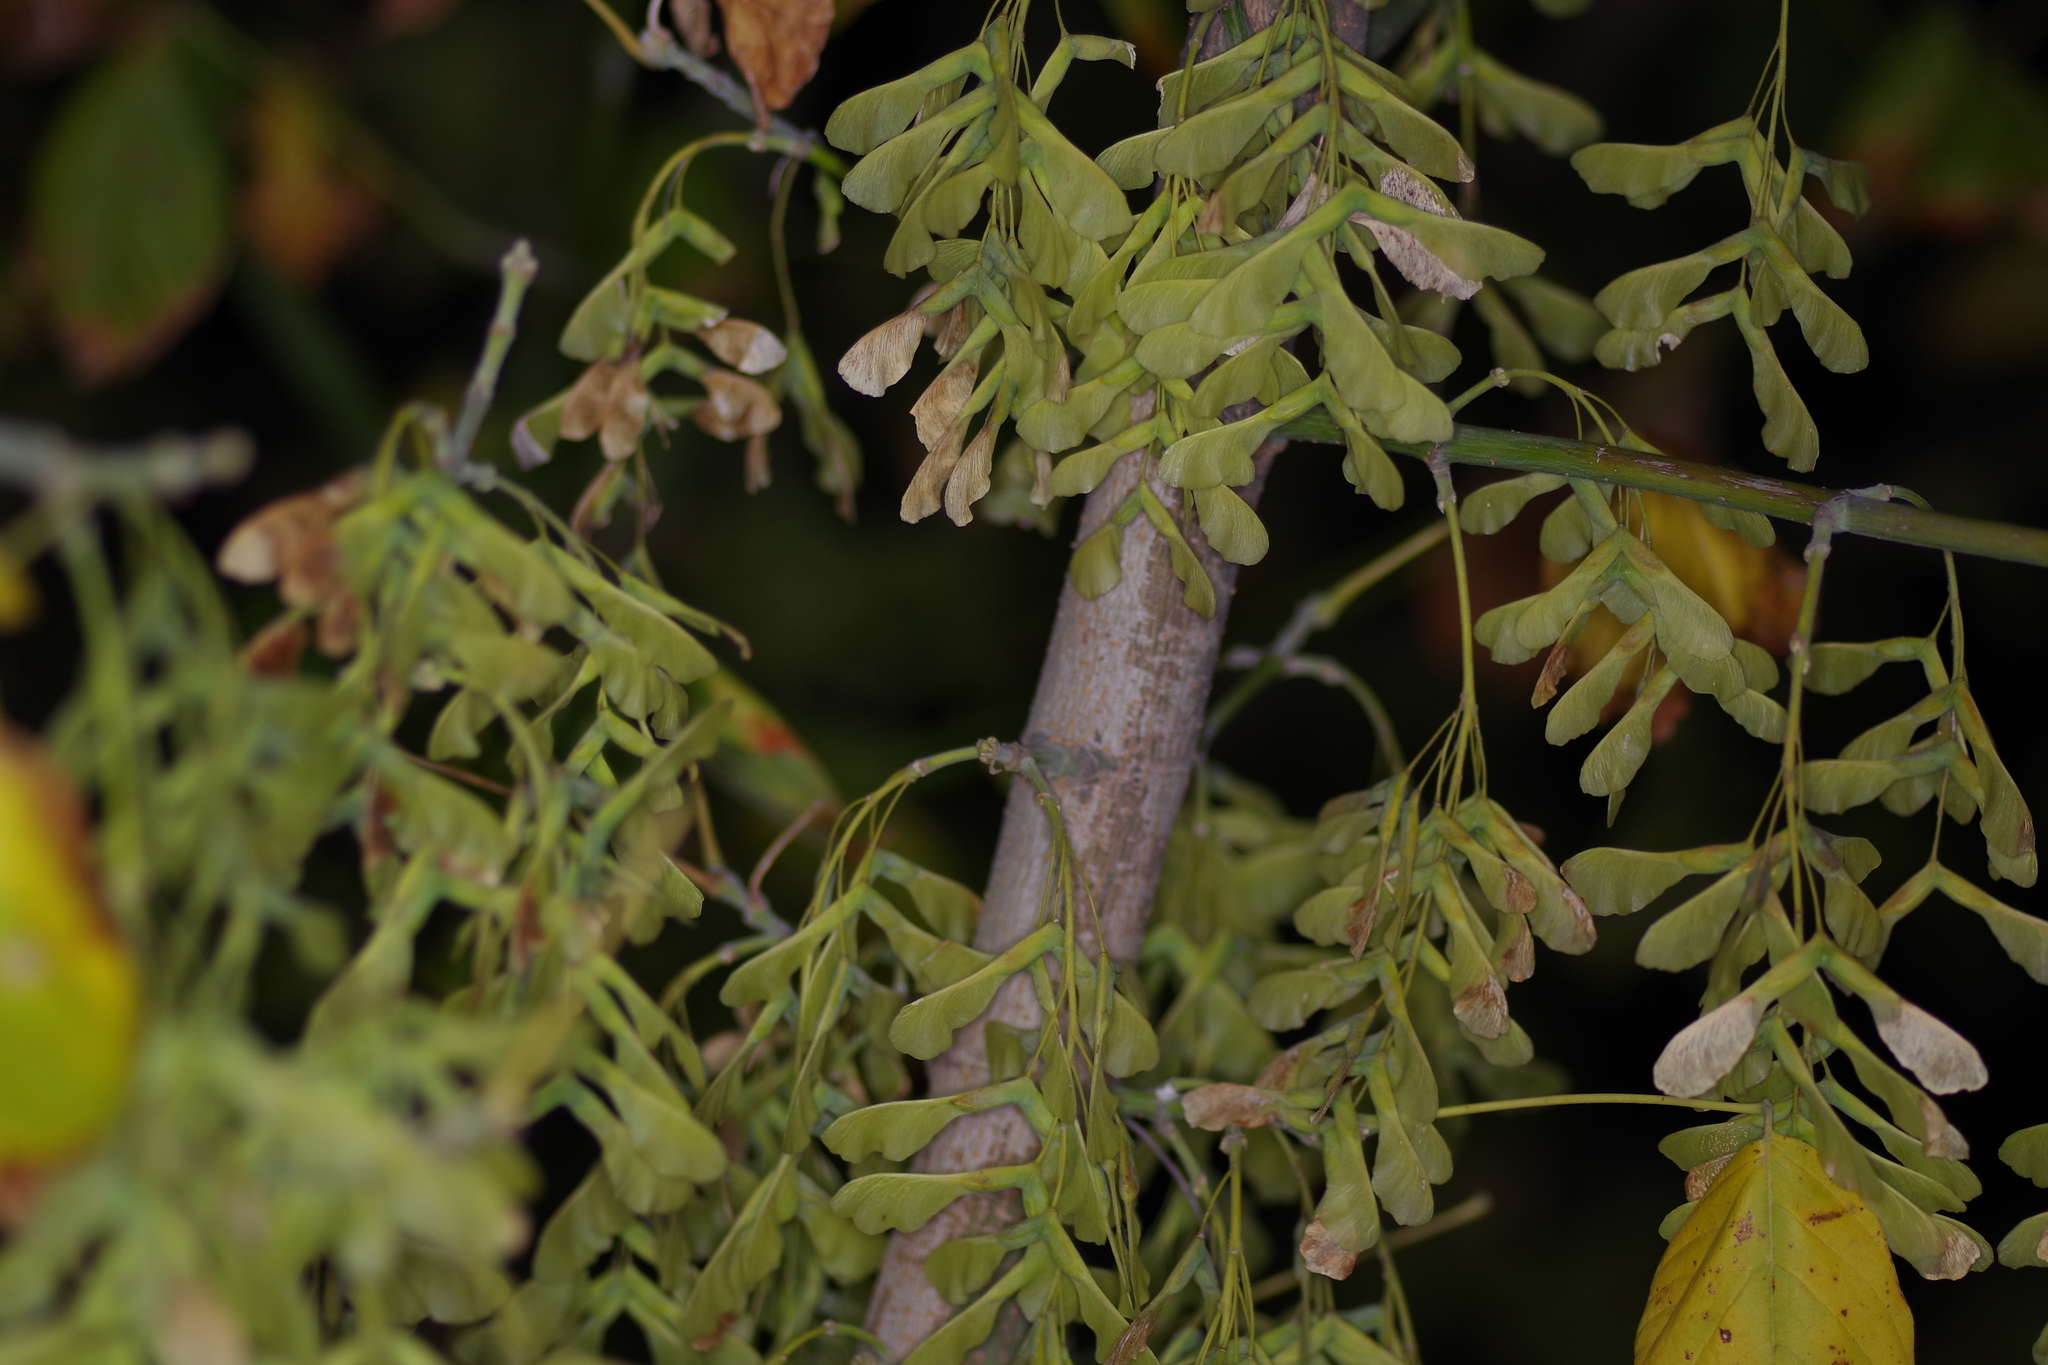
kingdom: Plantae
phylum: Tracheophyta
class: Magnoliopsida
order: Sapindales
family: Sapindaceae
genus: Acer
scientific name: Acer negundo
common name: Ashleaf maple
